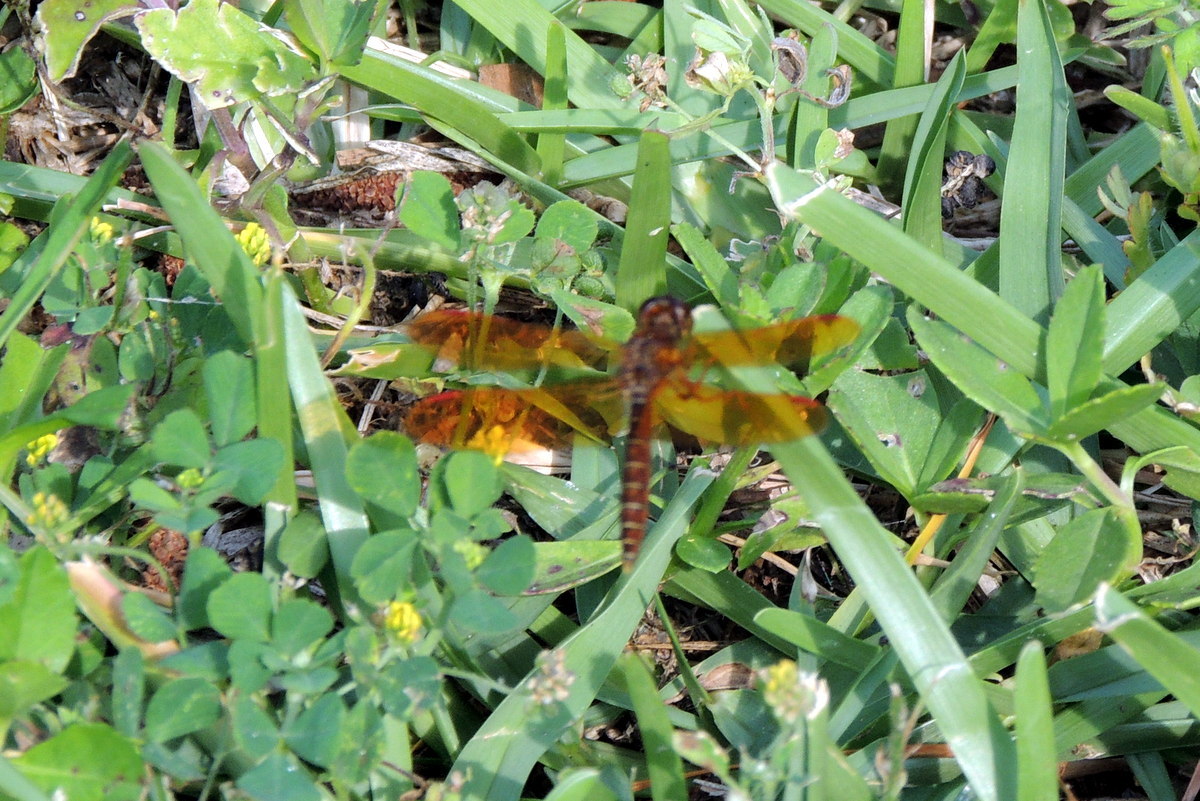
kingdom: Animalia
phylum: Arthropoda
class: Insecta
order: Odonata
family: Libellulidae
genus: Perithemis
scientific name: Perithemis tenera
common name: Eastern amberwing
